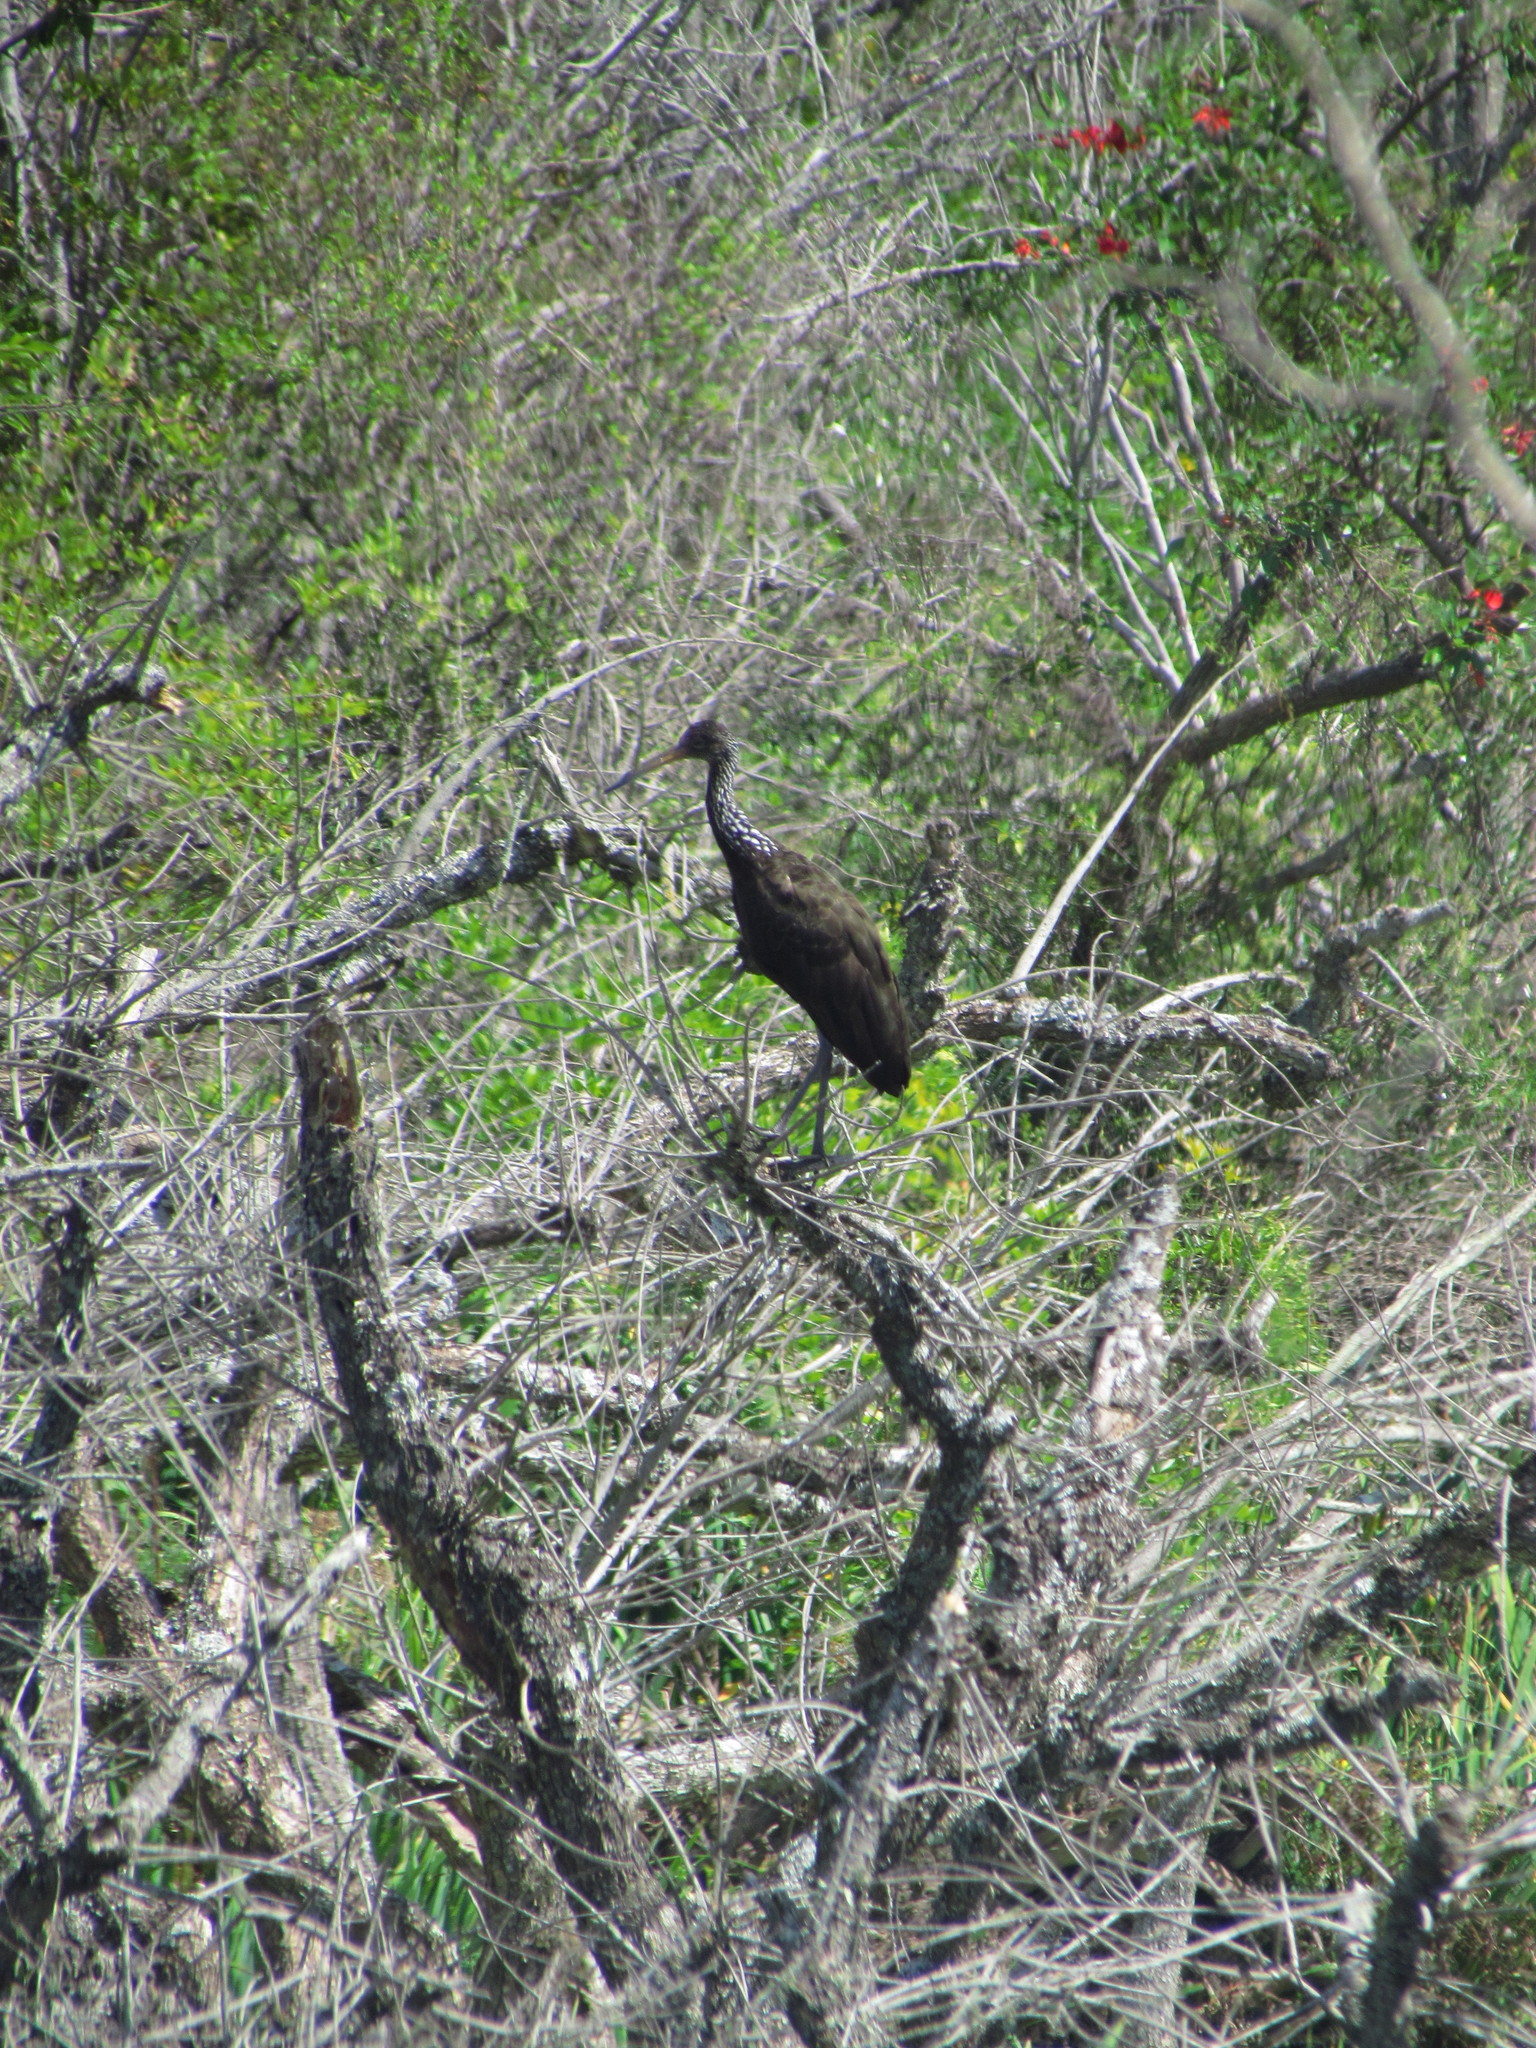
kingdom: Animalia
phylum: Chordata
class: Aves
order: Gruiformes
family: Aramidae
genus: Aramus
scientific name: Aramus guarauna
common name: Limpkin
